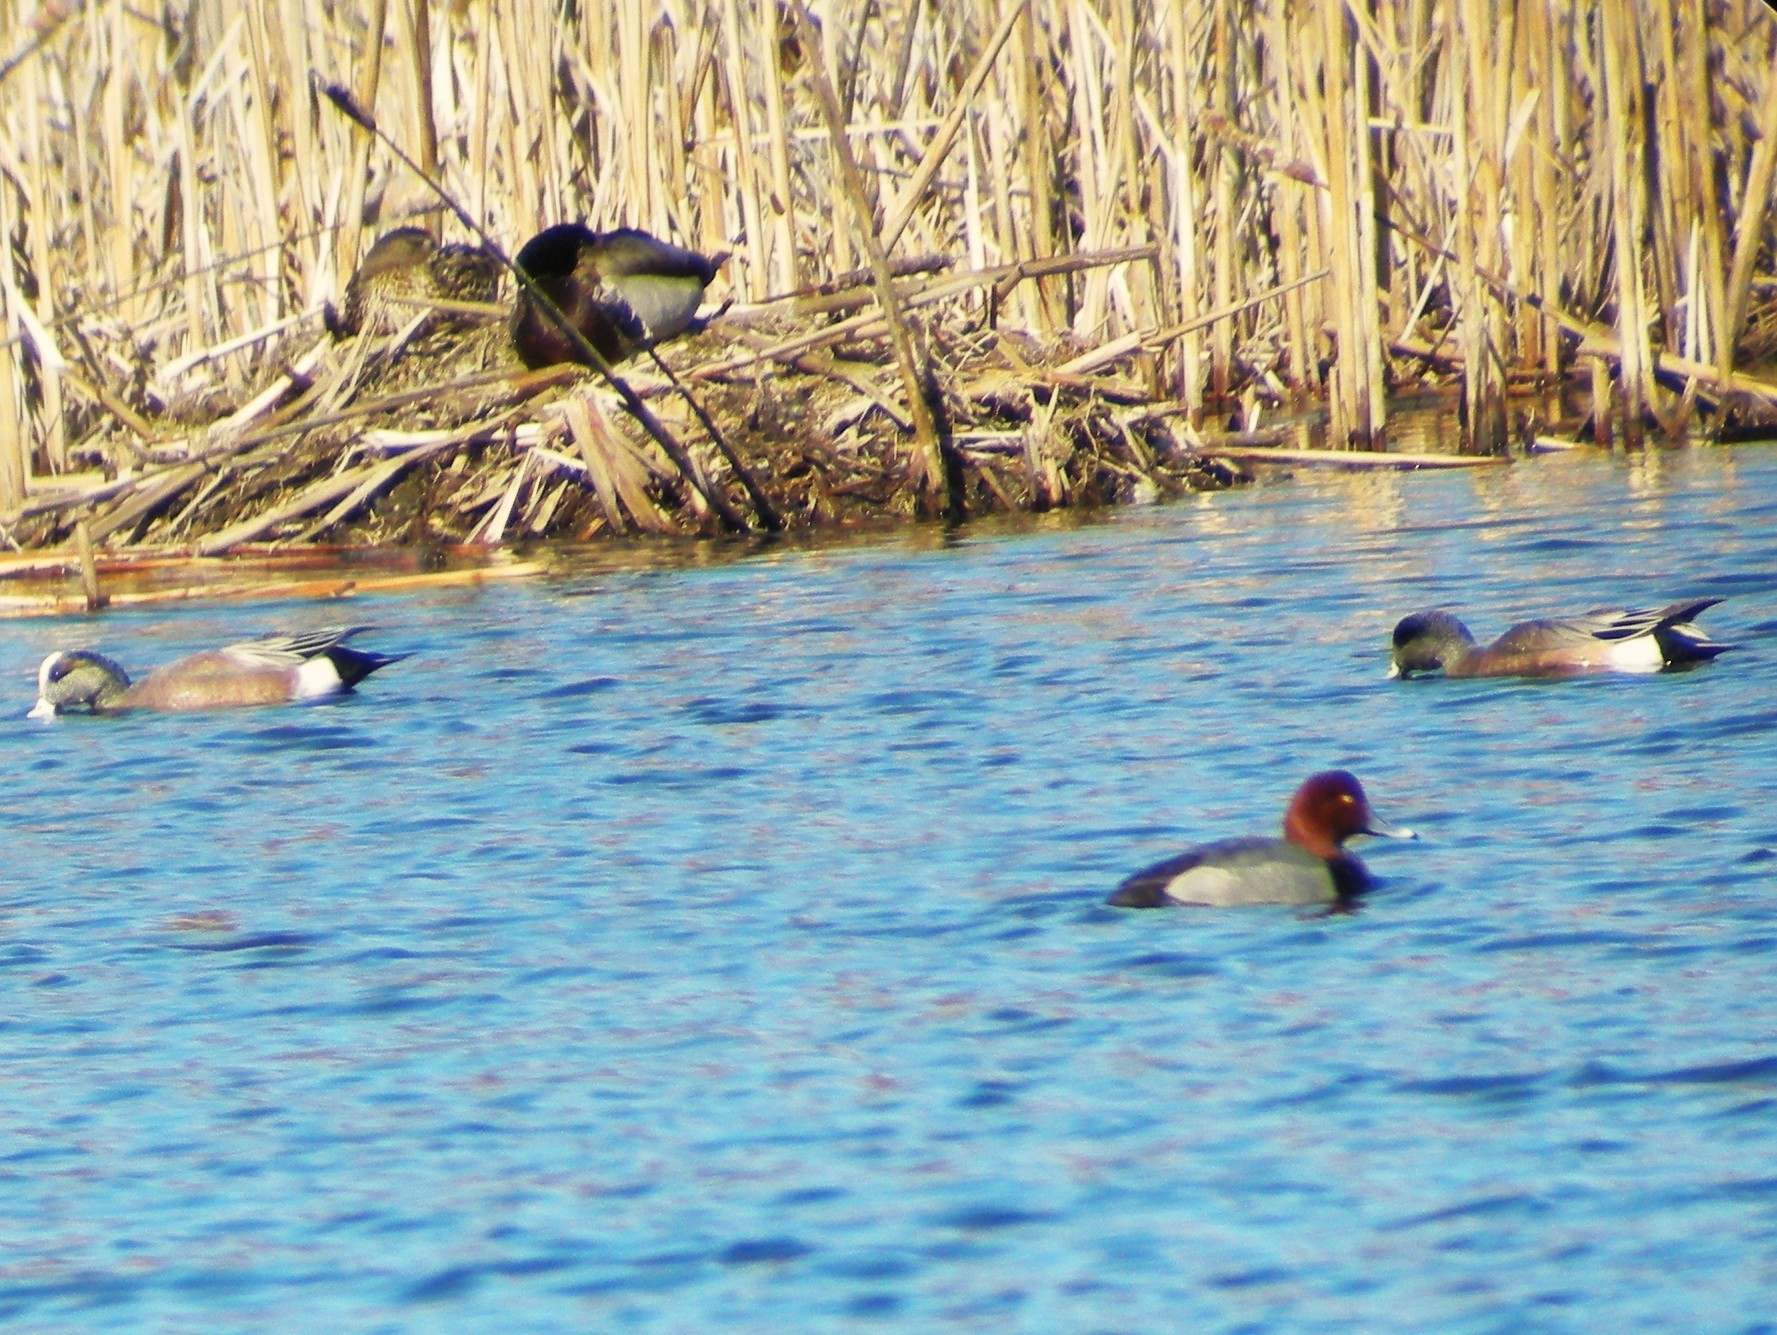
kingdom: Animalia
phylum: Chordata
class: Aves
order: Anseriformes
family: Anatidae
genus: Aythya
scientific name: Aythya americana
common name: Redhead
